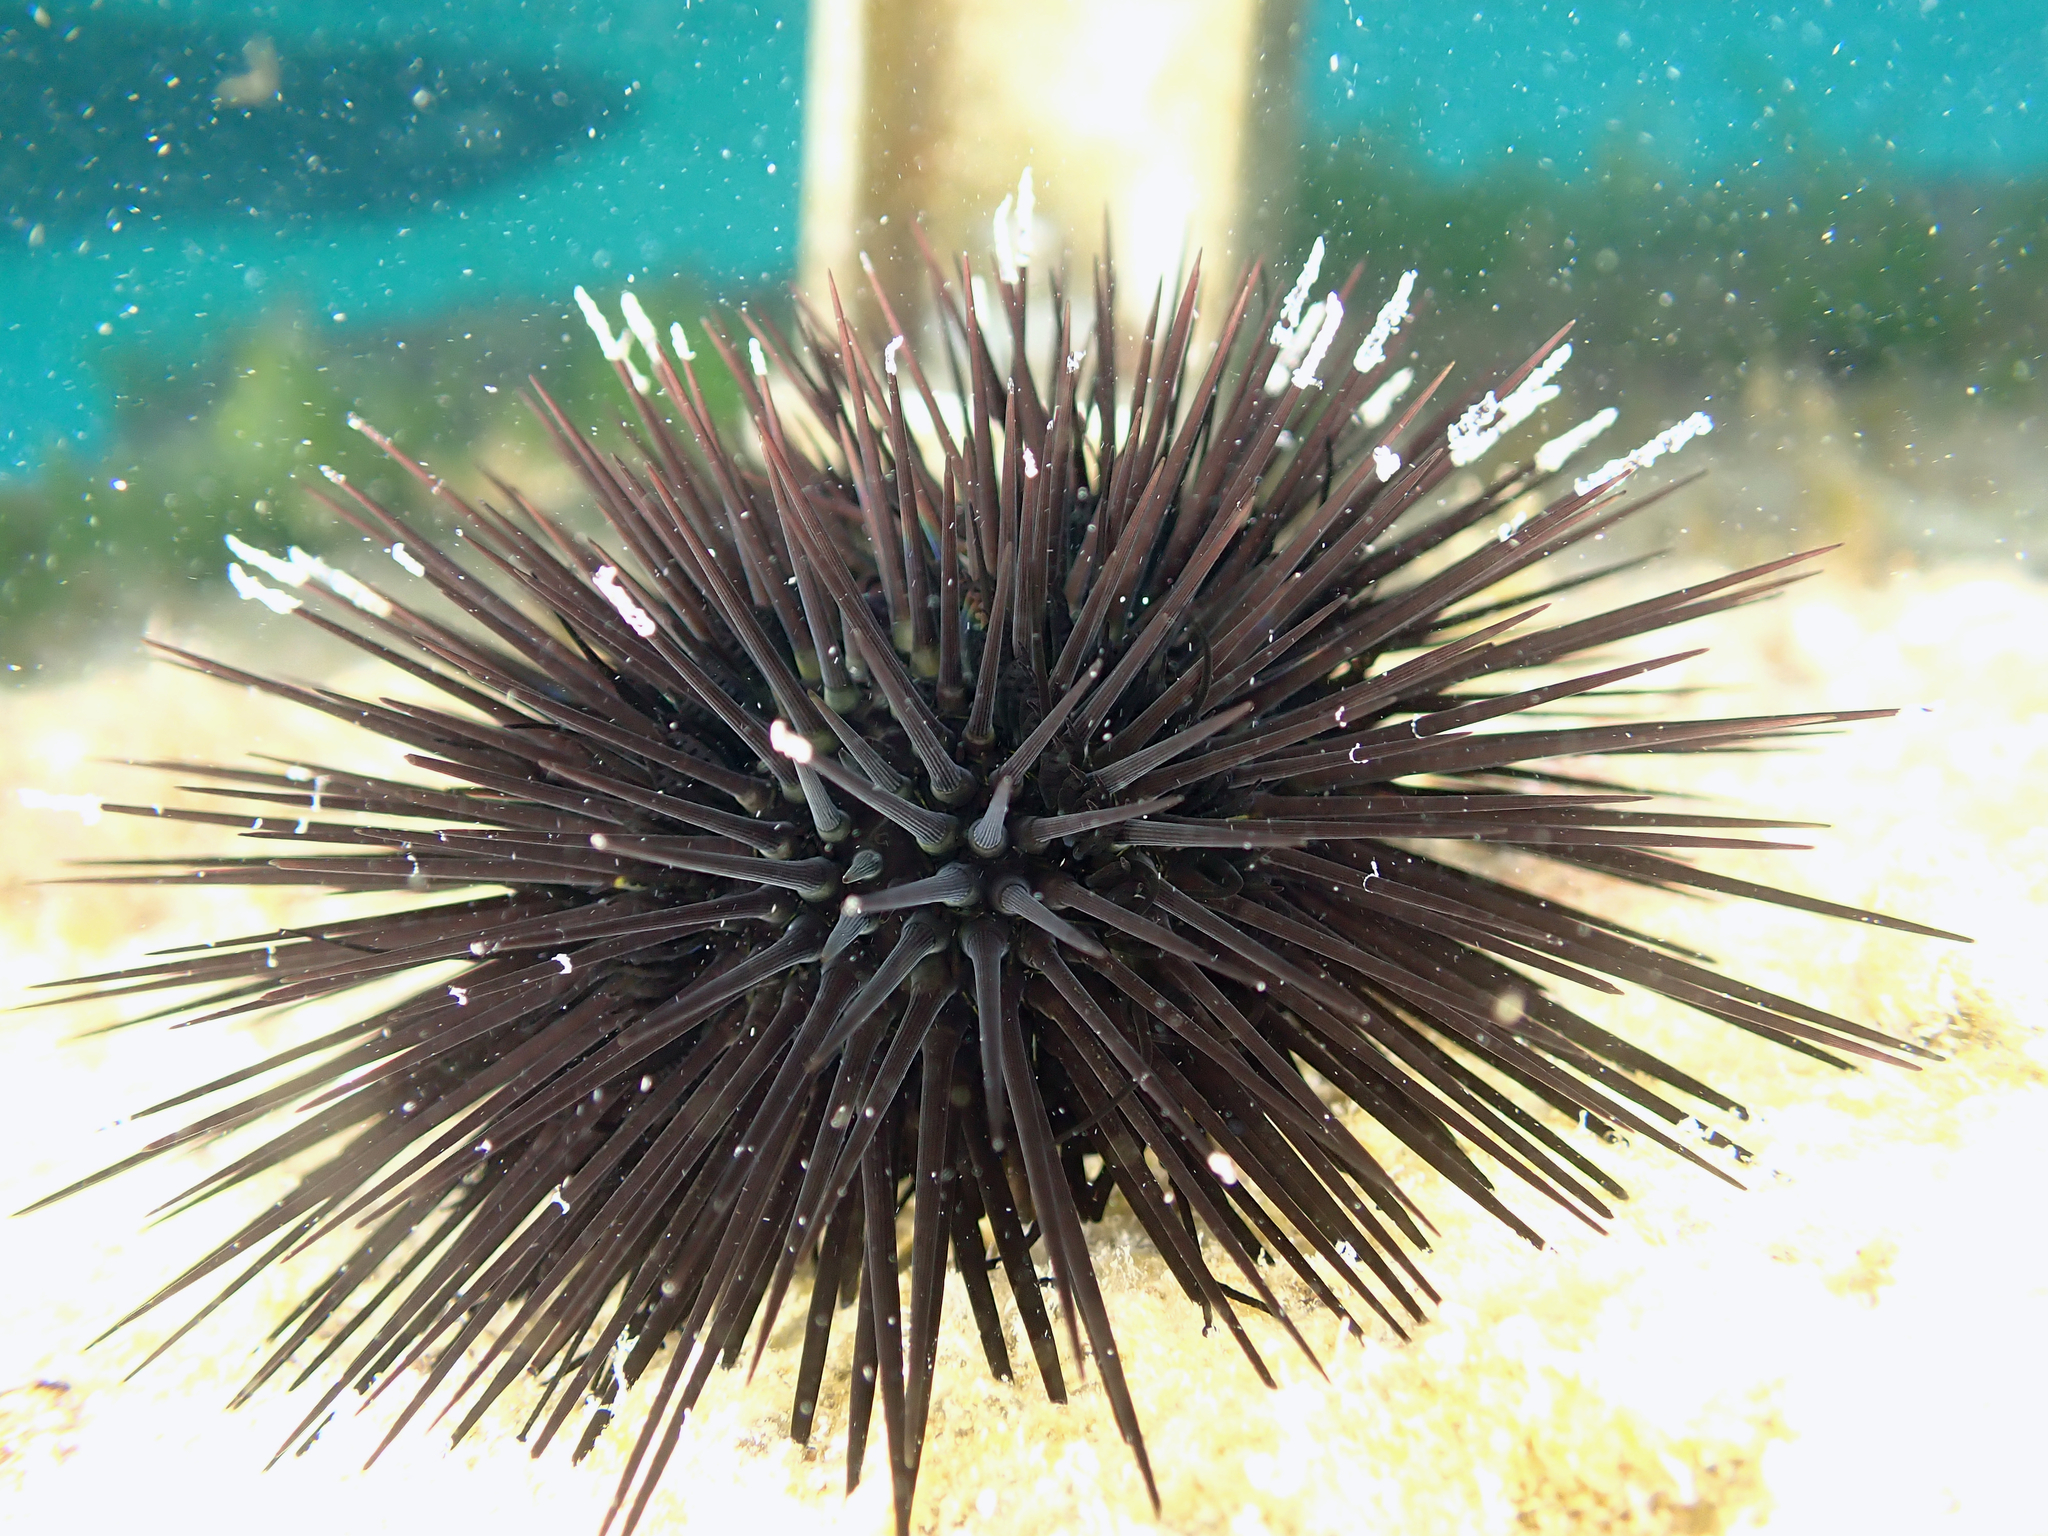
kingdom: Animalia
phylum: Echinodermata
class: Echinoidea
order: Arbacioida
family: Arbaciidae
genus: Arbacia
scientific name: Arbacia lixula
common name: Black sea urchin
